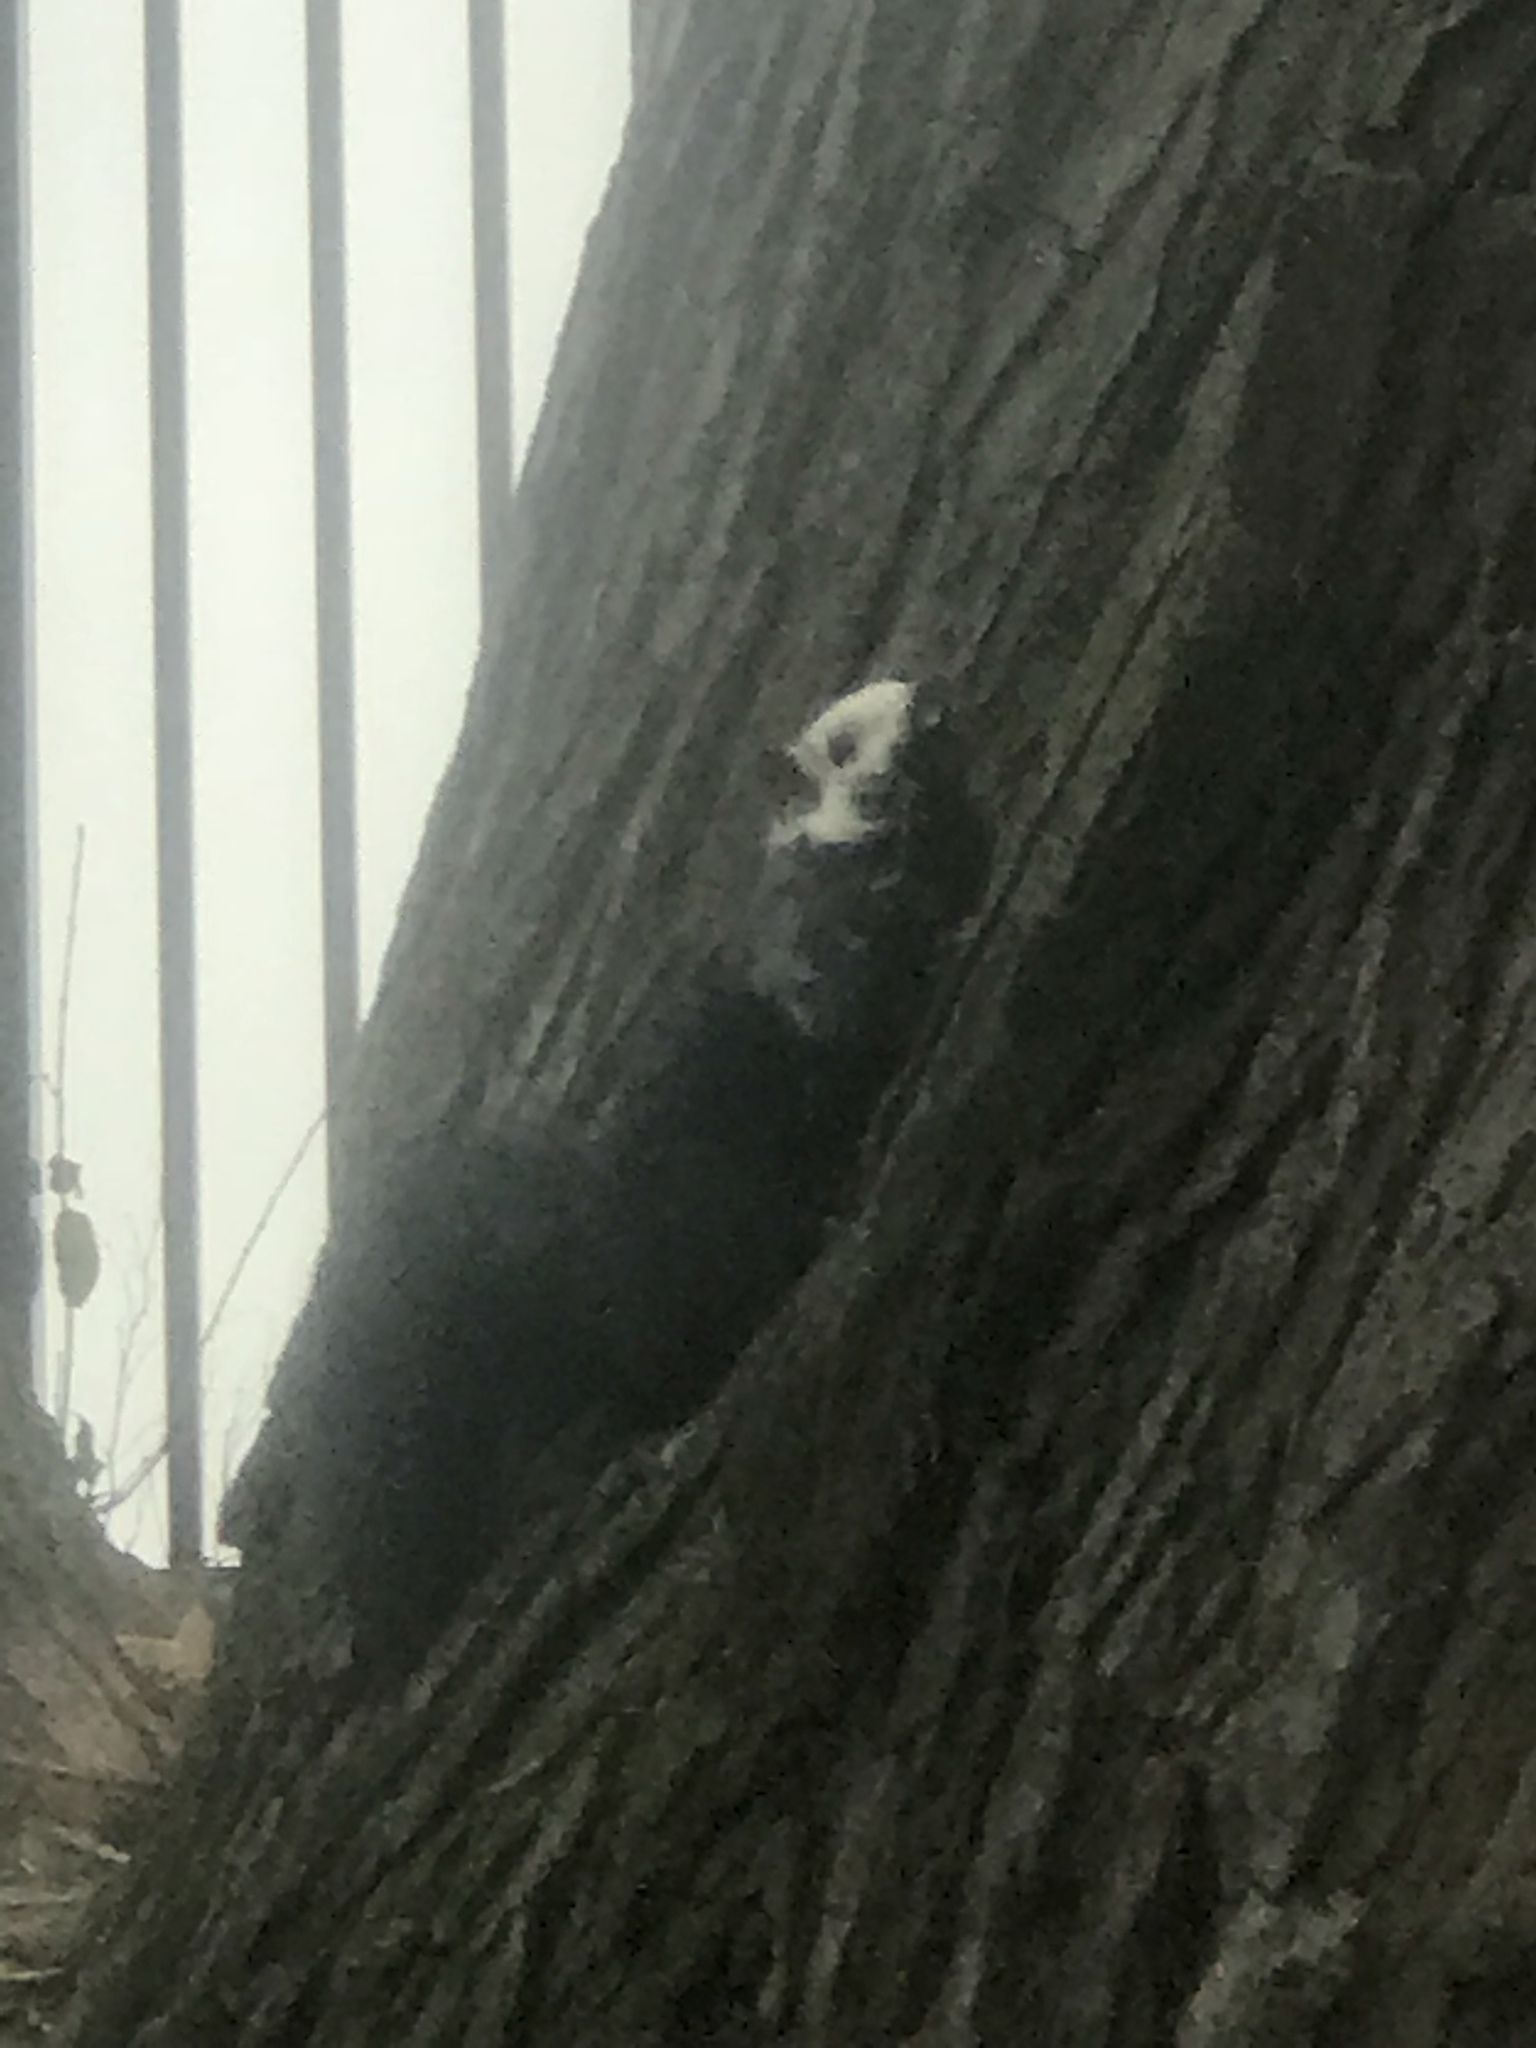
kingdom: Animalia
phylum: Chordata
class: Mammalia
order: Rodentia
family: Sciuridae
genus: Sciurus
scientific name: Sciurus carolinensis
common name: Eastern gray squirrel
